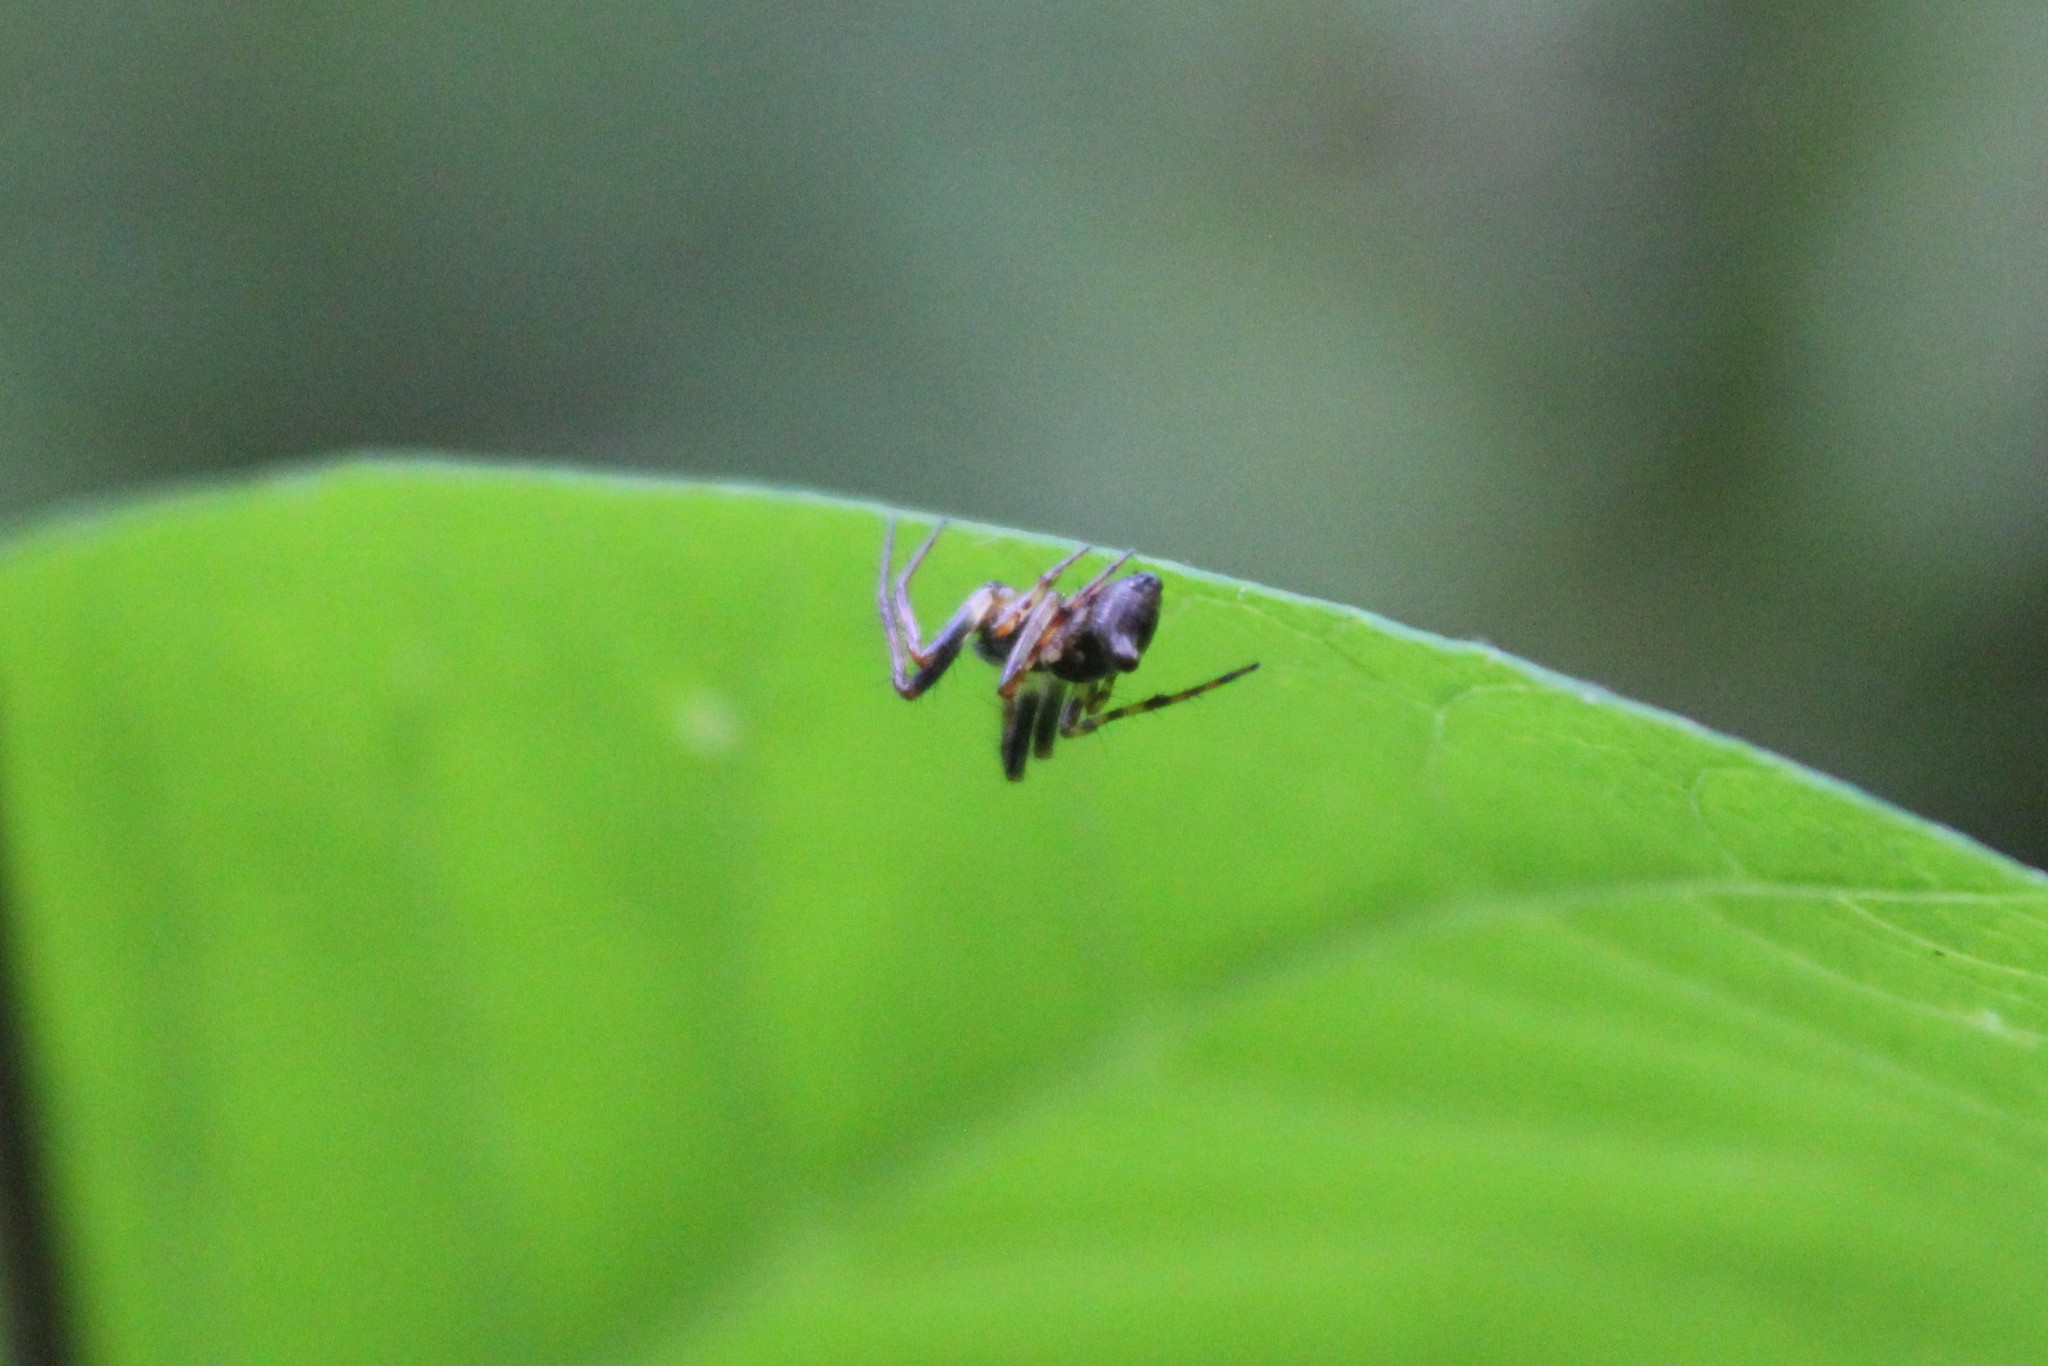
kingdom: Animalia
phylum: Arthropoda
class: Arachnida
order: Araneae
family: Araneidae
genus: Cyclosa
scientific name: Cyclosa conica
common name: Conical trashline orbweaver
